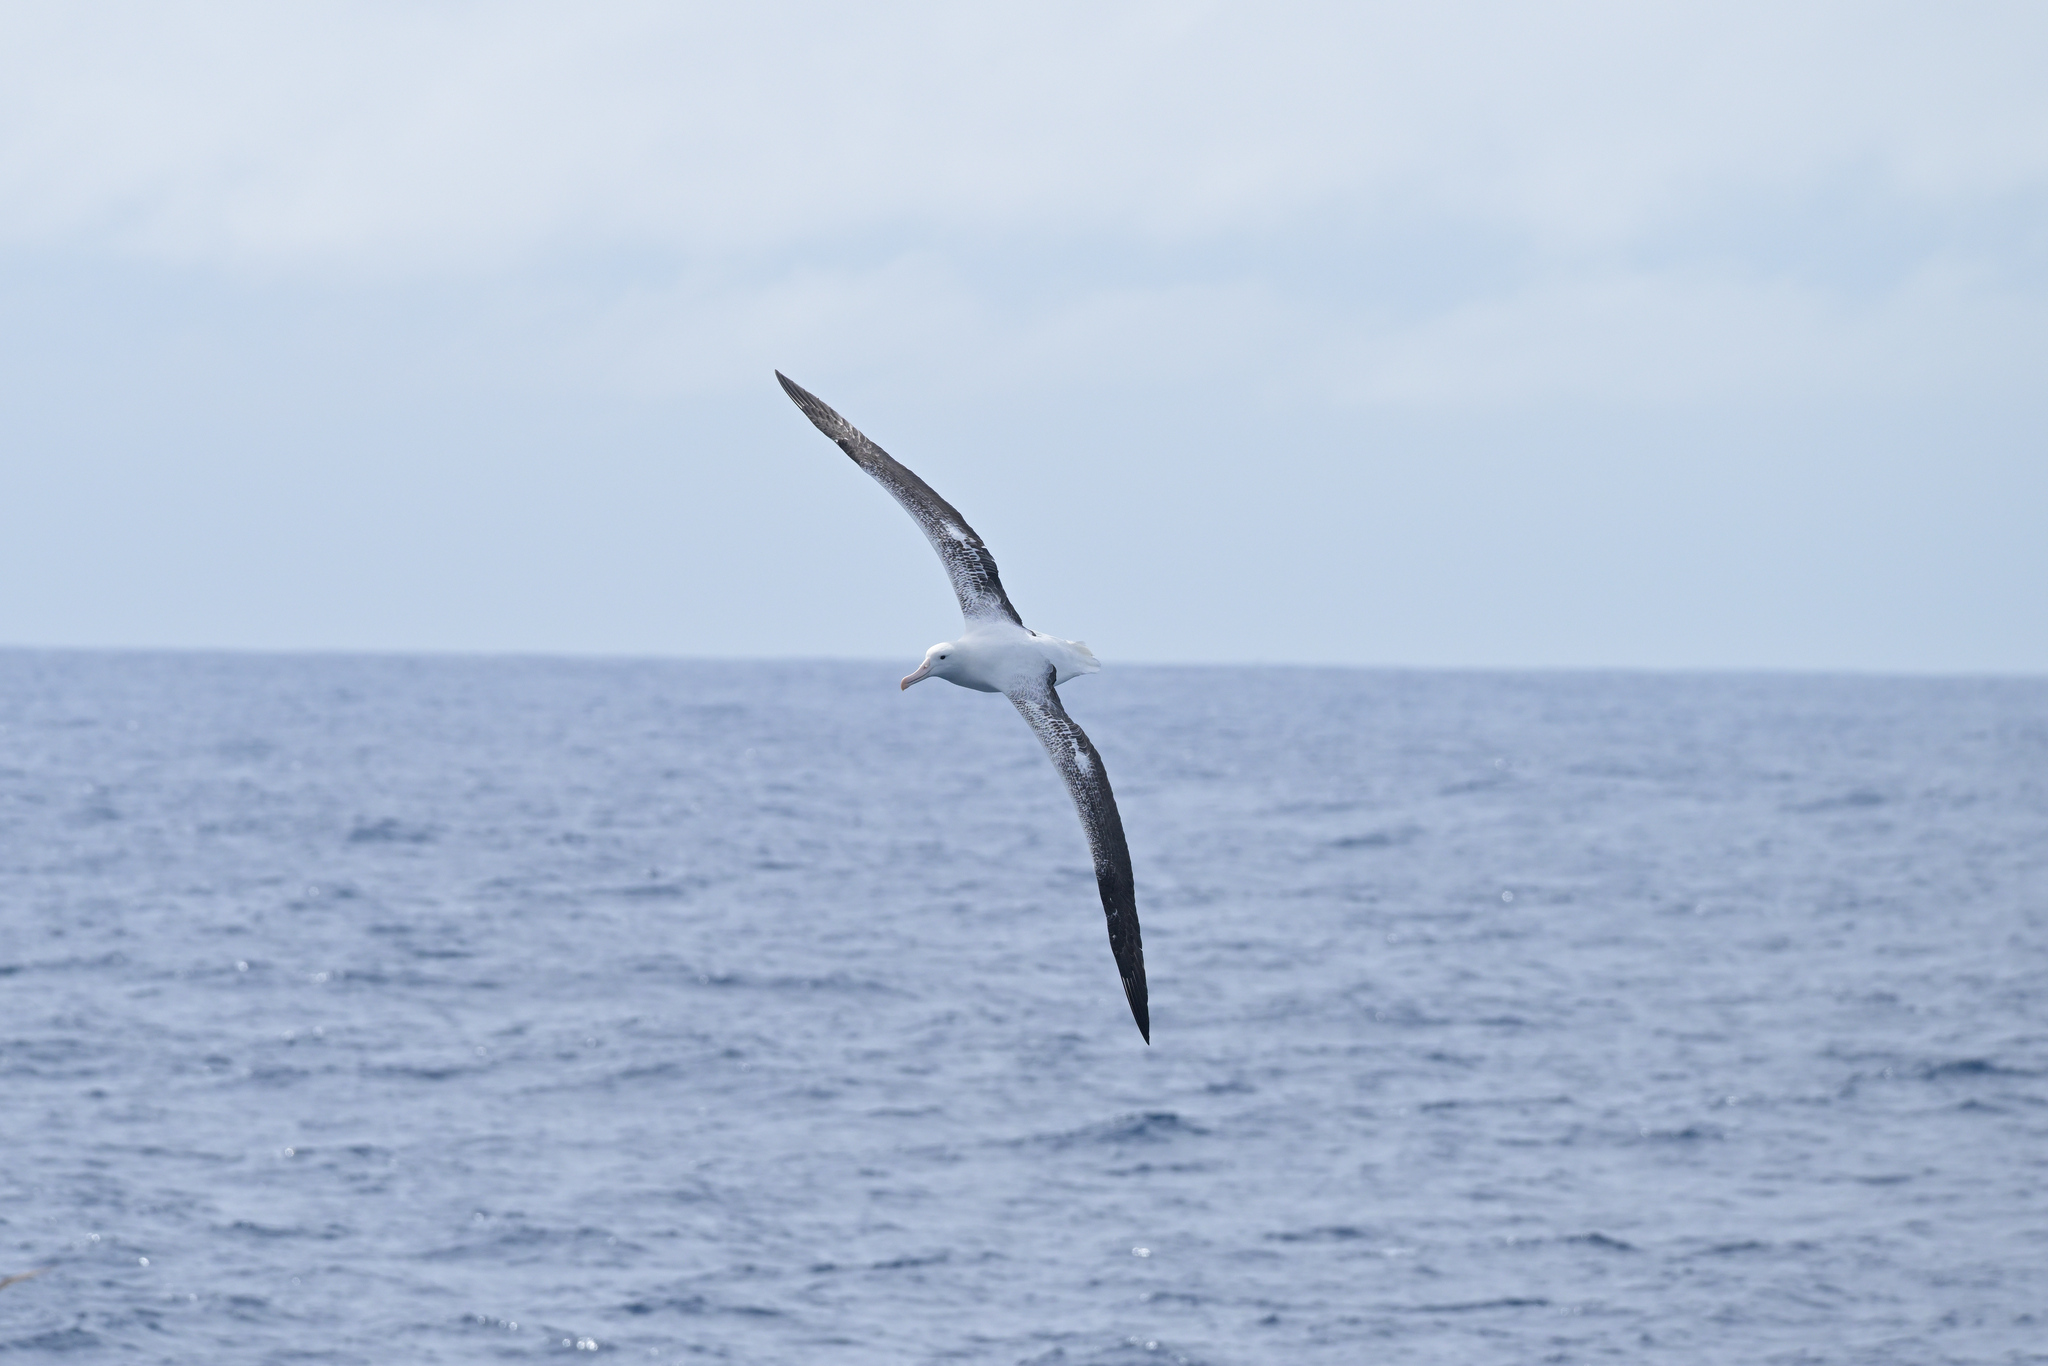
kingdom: Animalia
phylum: Chordata
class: Aves
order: Procellariiformes
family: Diomedeidae
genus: Diomedea
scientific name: Diomedea epomophora
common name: Southern royal albatross
